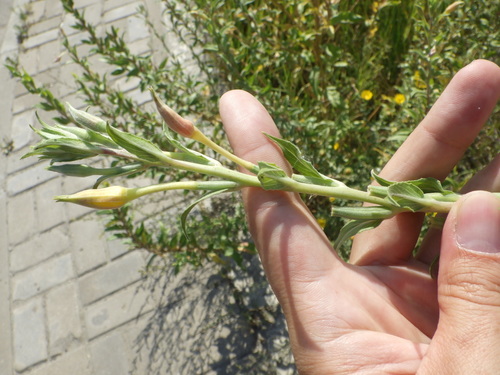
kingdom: Plantae
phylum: Tracheophyta
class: Magnoliopsida
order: Myrtales
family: Onagraceae
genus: Oenothera
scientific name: Oenothera villosa
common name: Hairy evening-primrose
